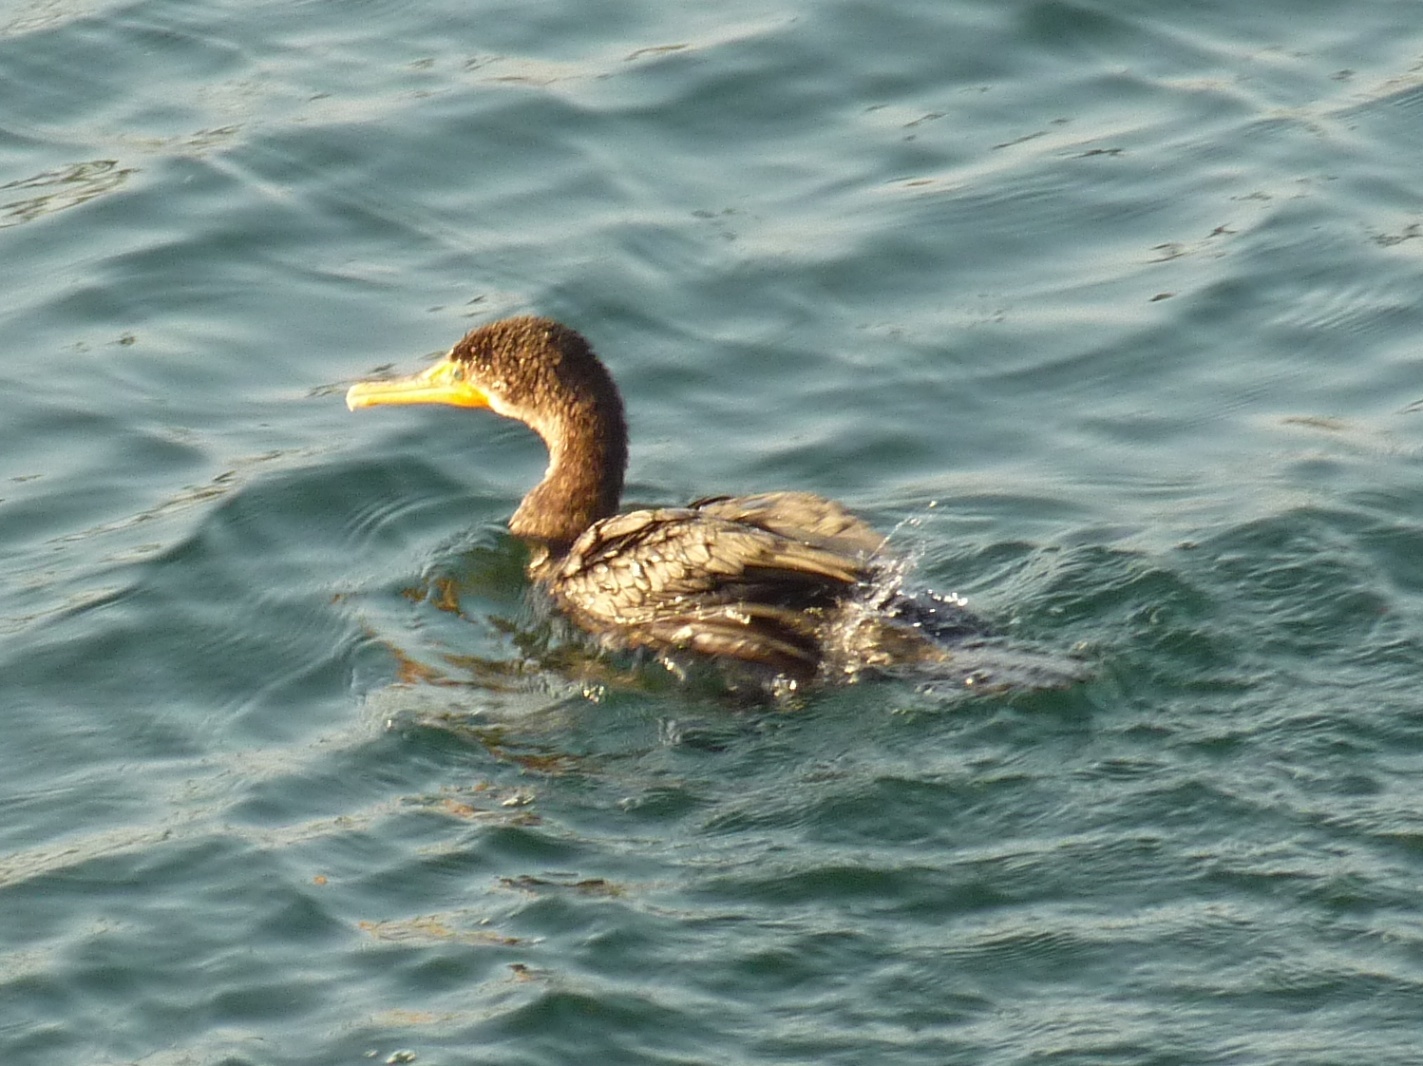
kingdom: Animalia
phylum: Chordata
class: Aves
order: Suliformes
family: Phalacrocoracidae
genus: Phalacrocorax
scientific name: Phalacrocorax auritus
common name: Double-crested cormorant
